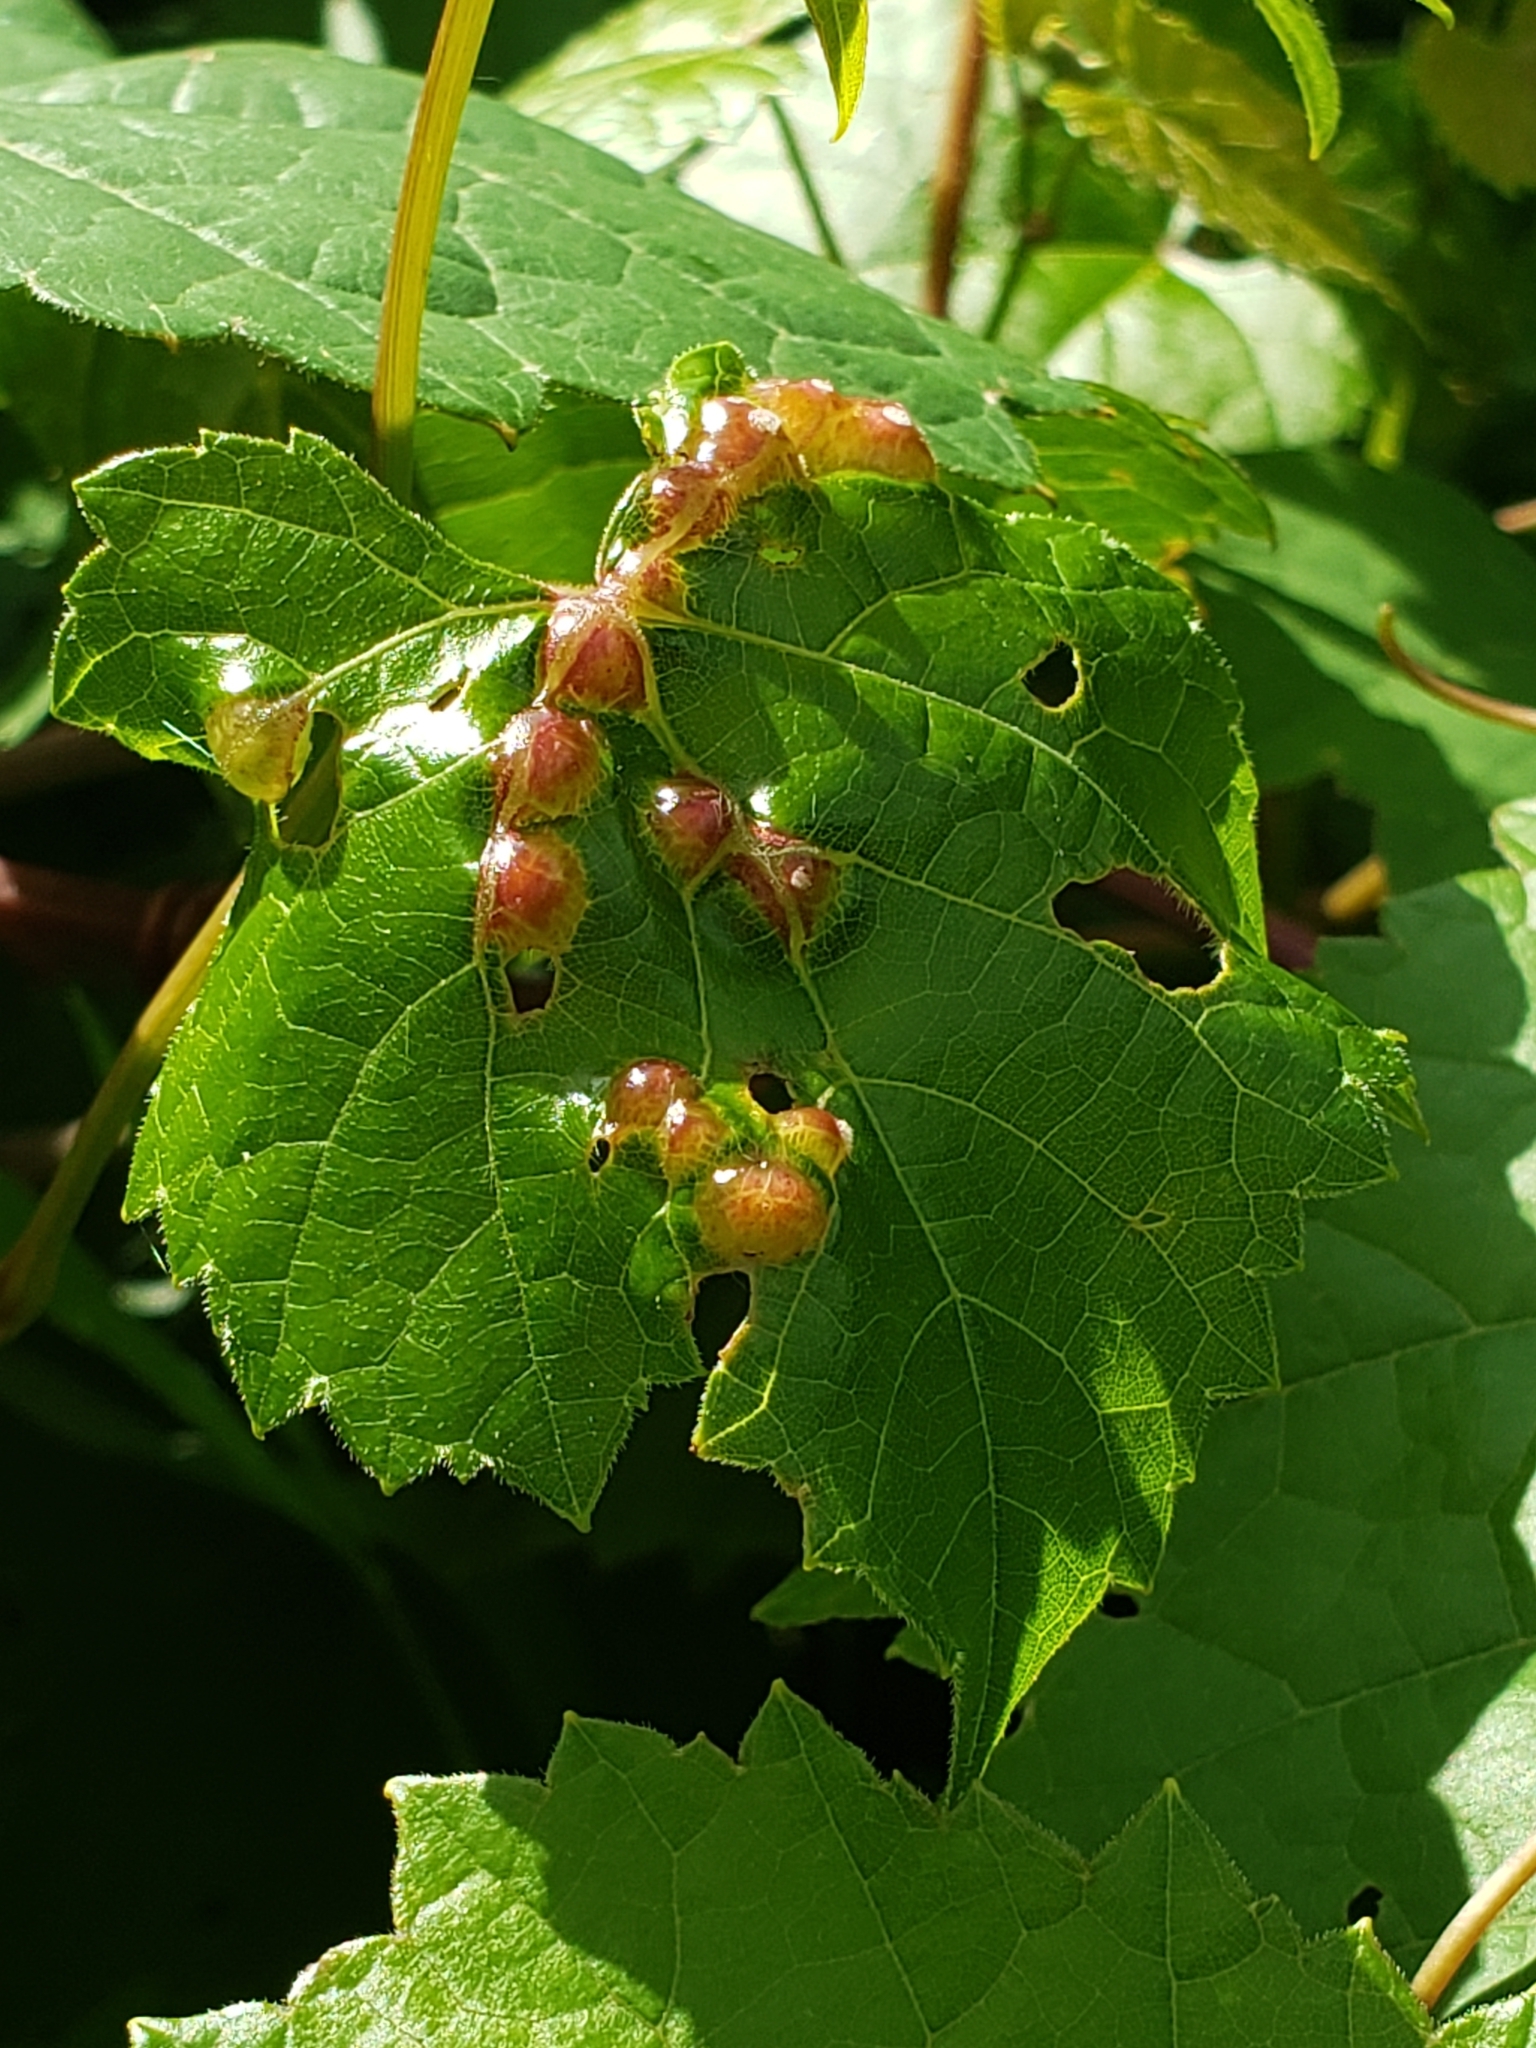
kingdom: Animalia
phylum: Arthropoda
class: Insecta
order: Diptera
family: Cecidomyiidae
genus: Vitisiella
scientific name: Vitisiella brevicauda
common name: Grape tumid gallmaker midge
